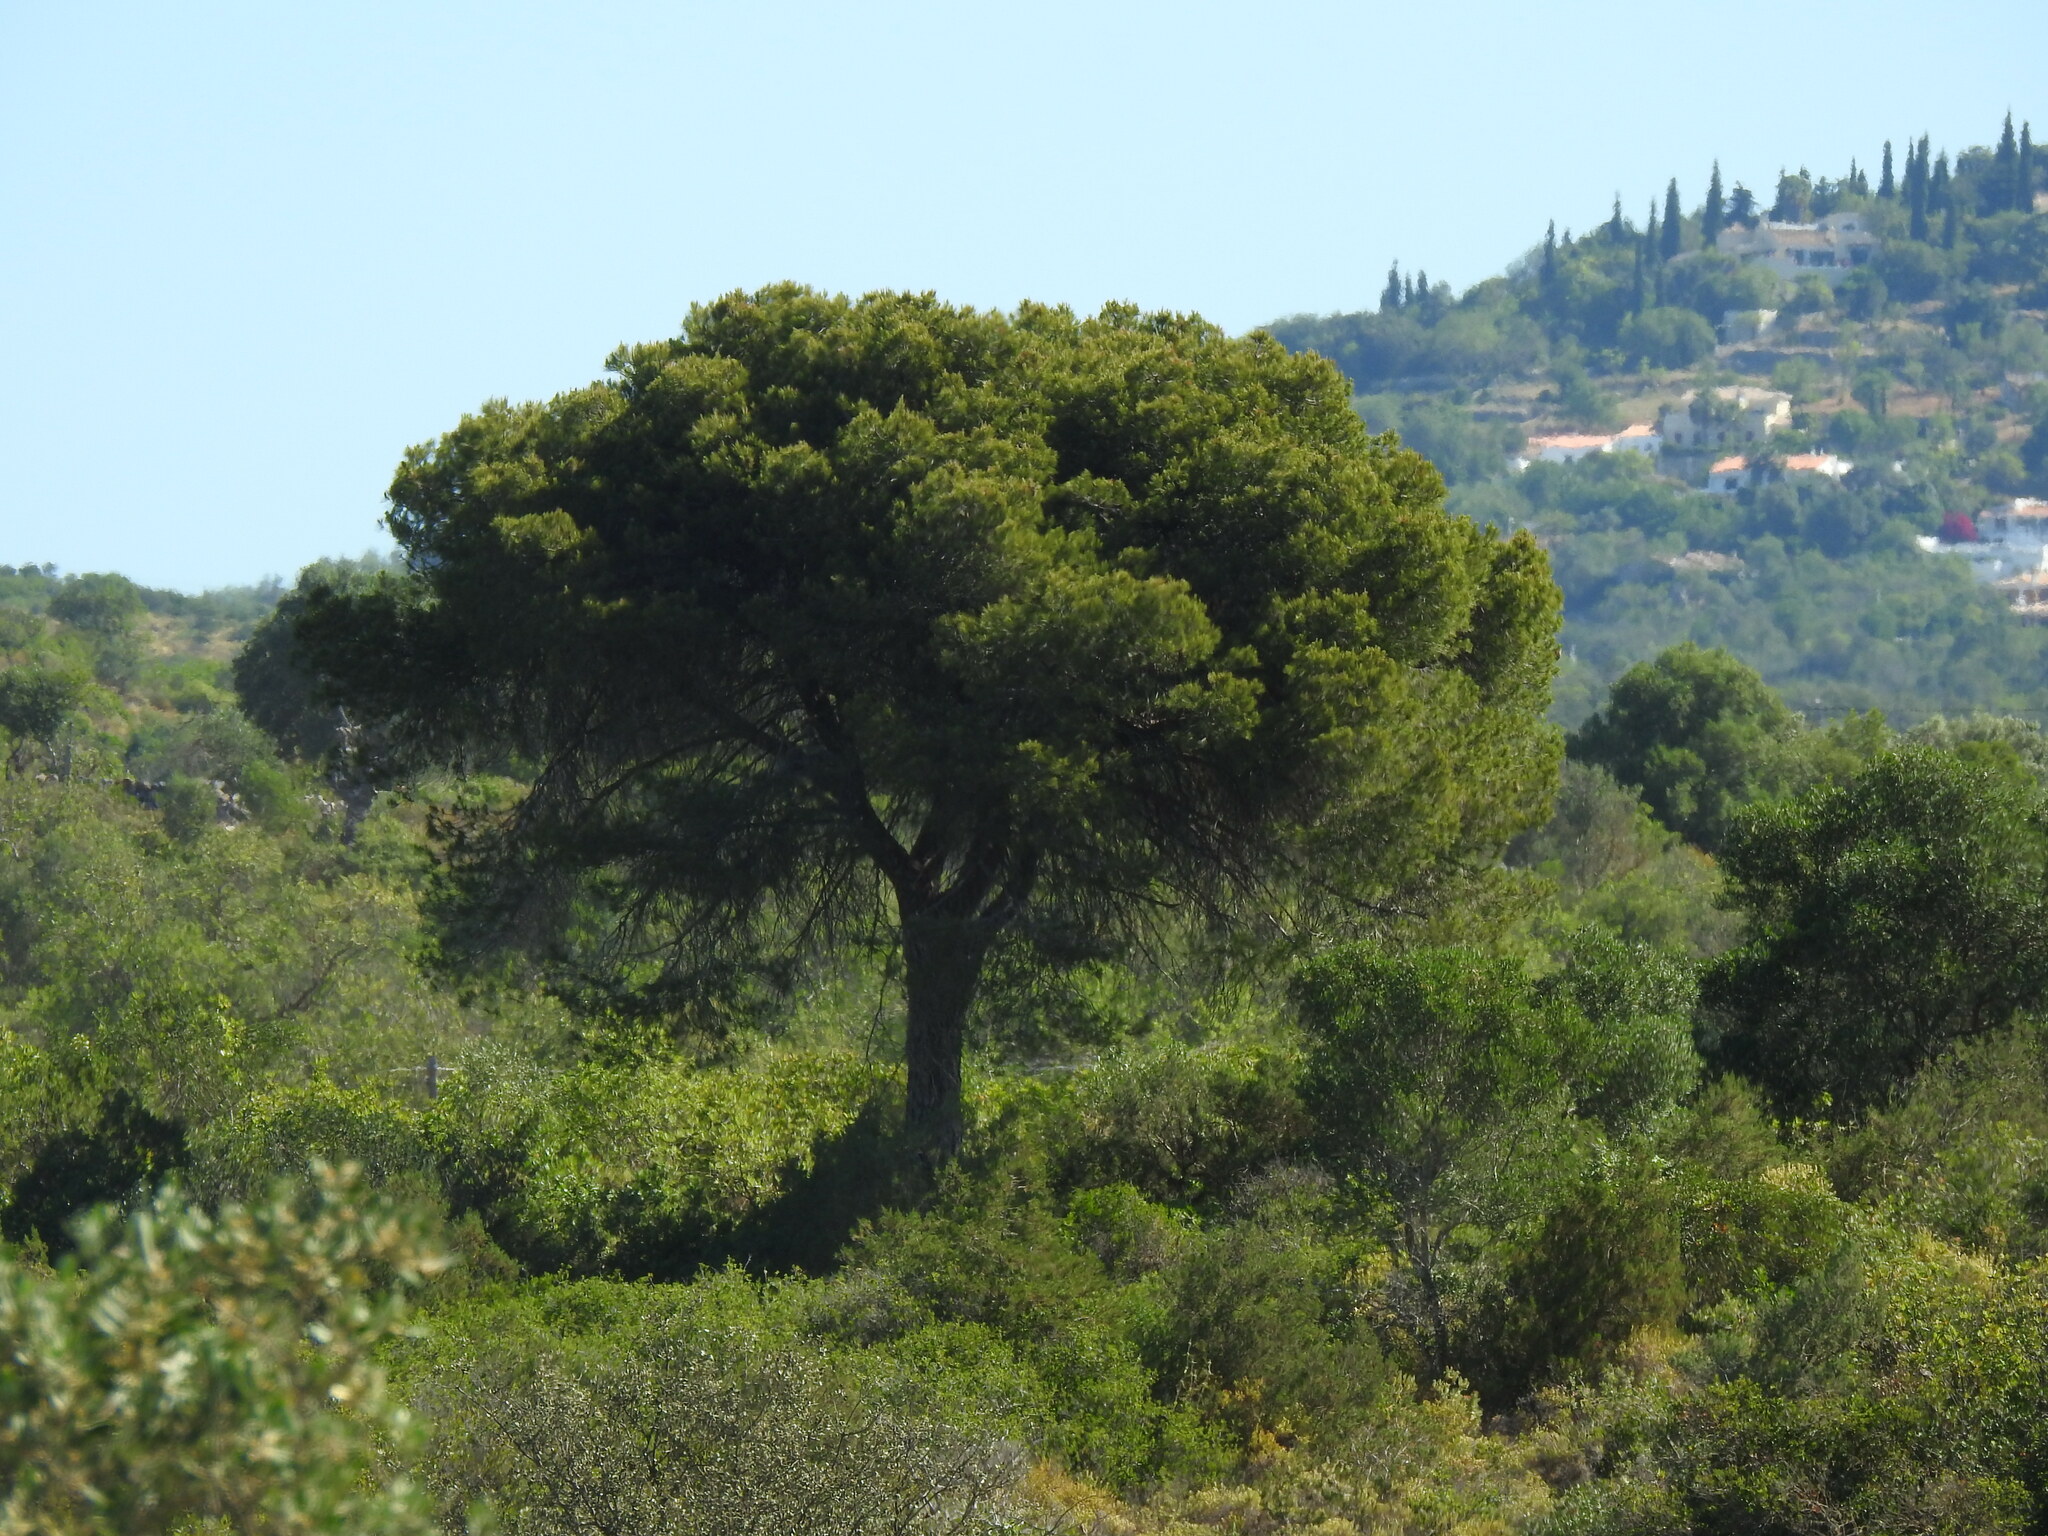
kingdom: Plantae
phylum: Tracheophyta
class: Pinopsida
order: Pinales
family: Pinaceae
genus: Pinus
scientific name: Pinus pinea
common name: Italian stone pine
